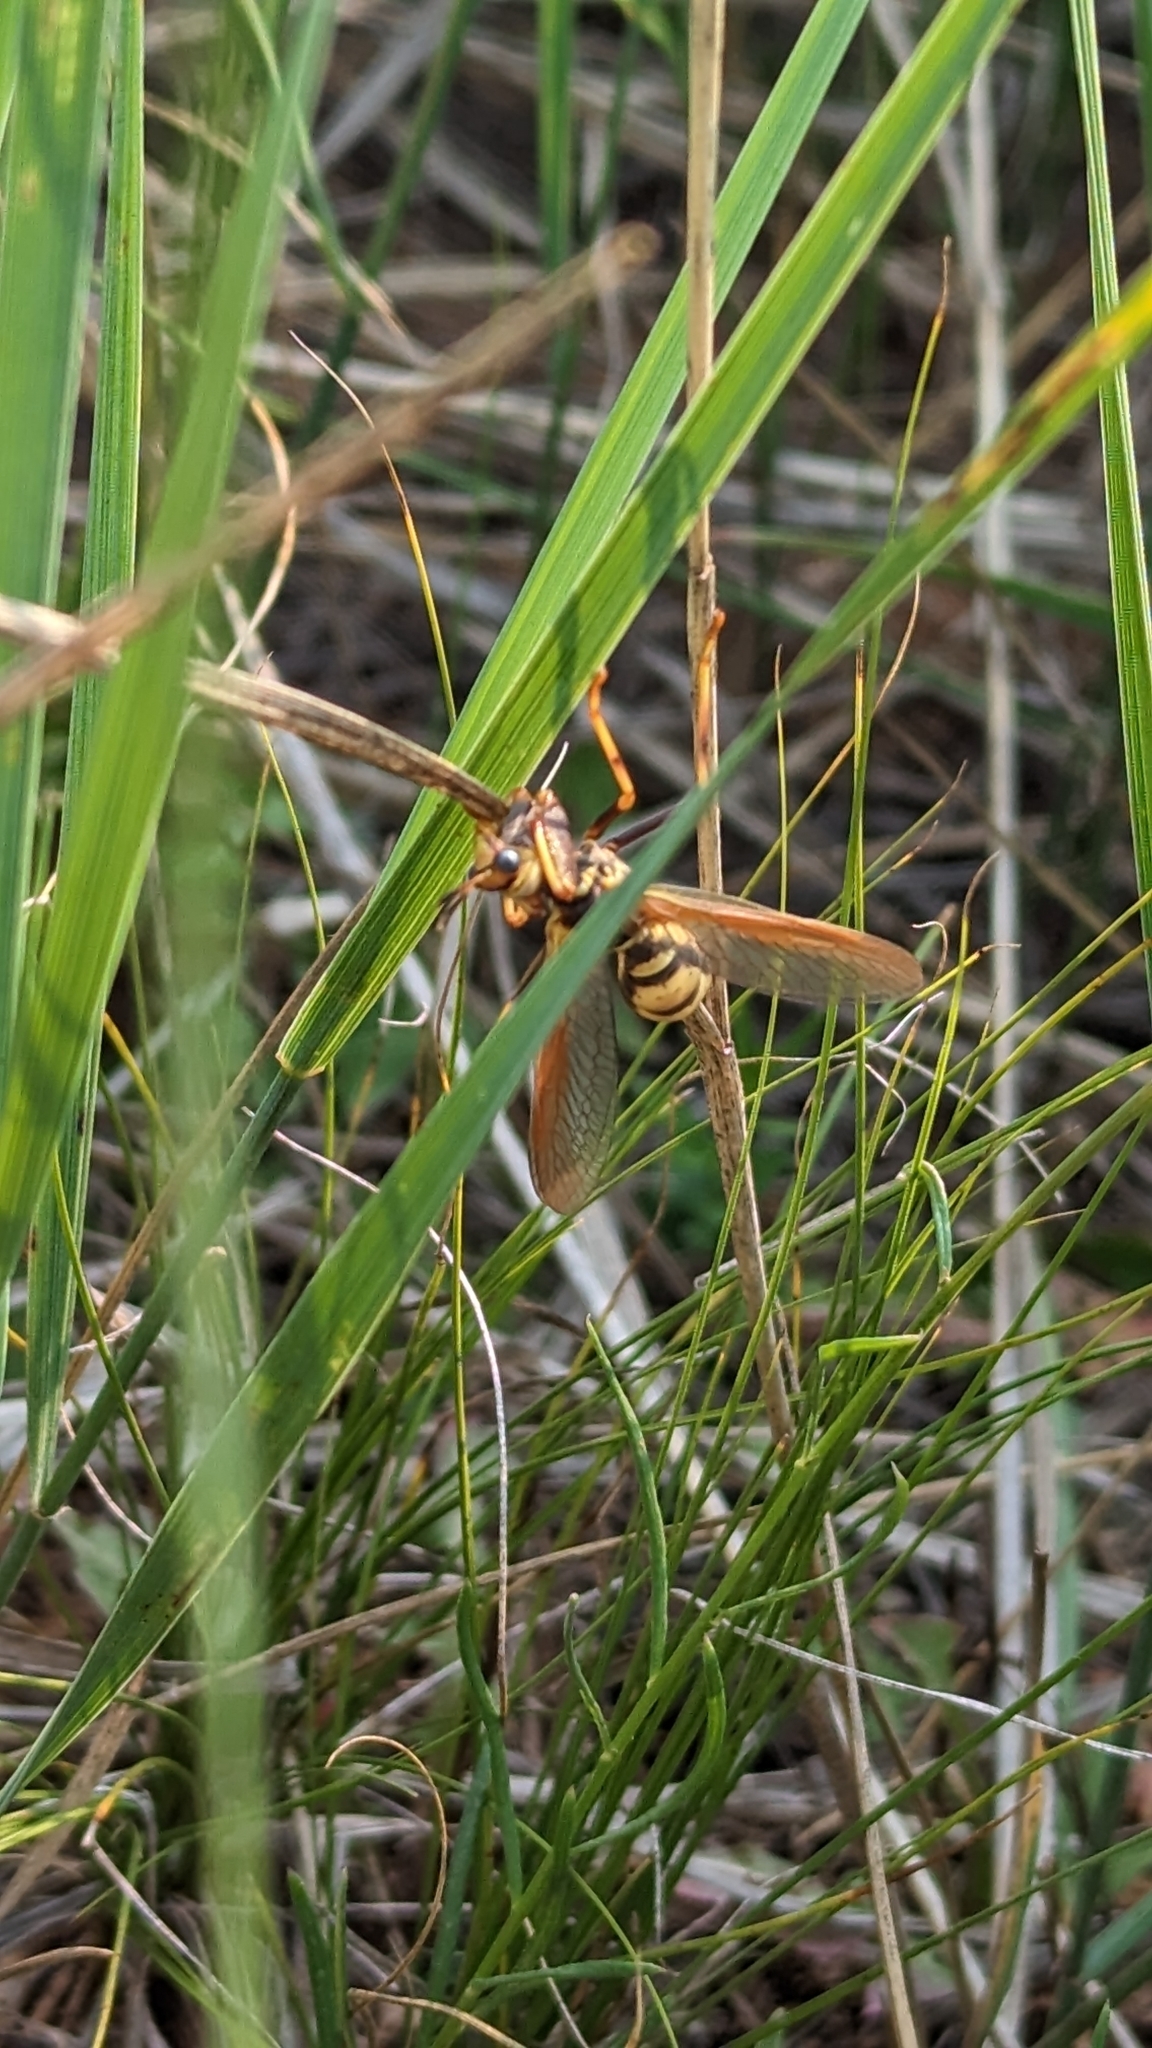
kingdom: Animalia
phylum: Arthropoda
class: Insecta
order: Neuroptera
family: Mantispidae
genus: Climaciella
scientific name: Climaciella brunnea
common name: Brown wasp mantidfly
